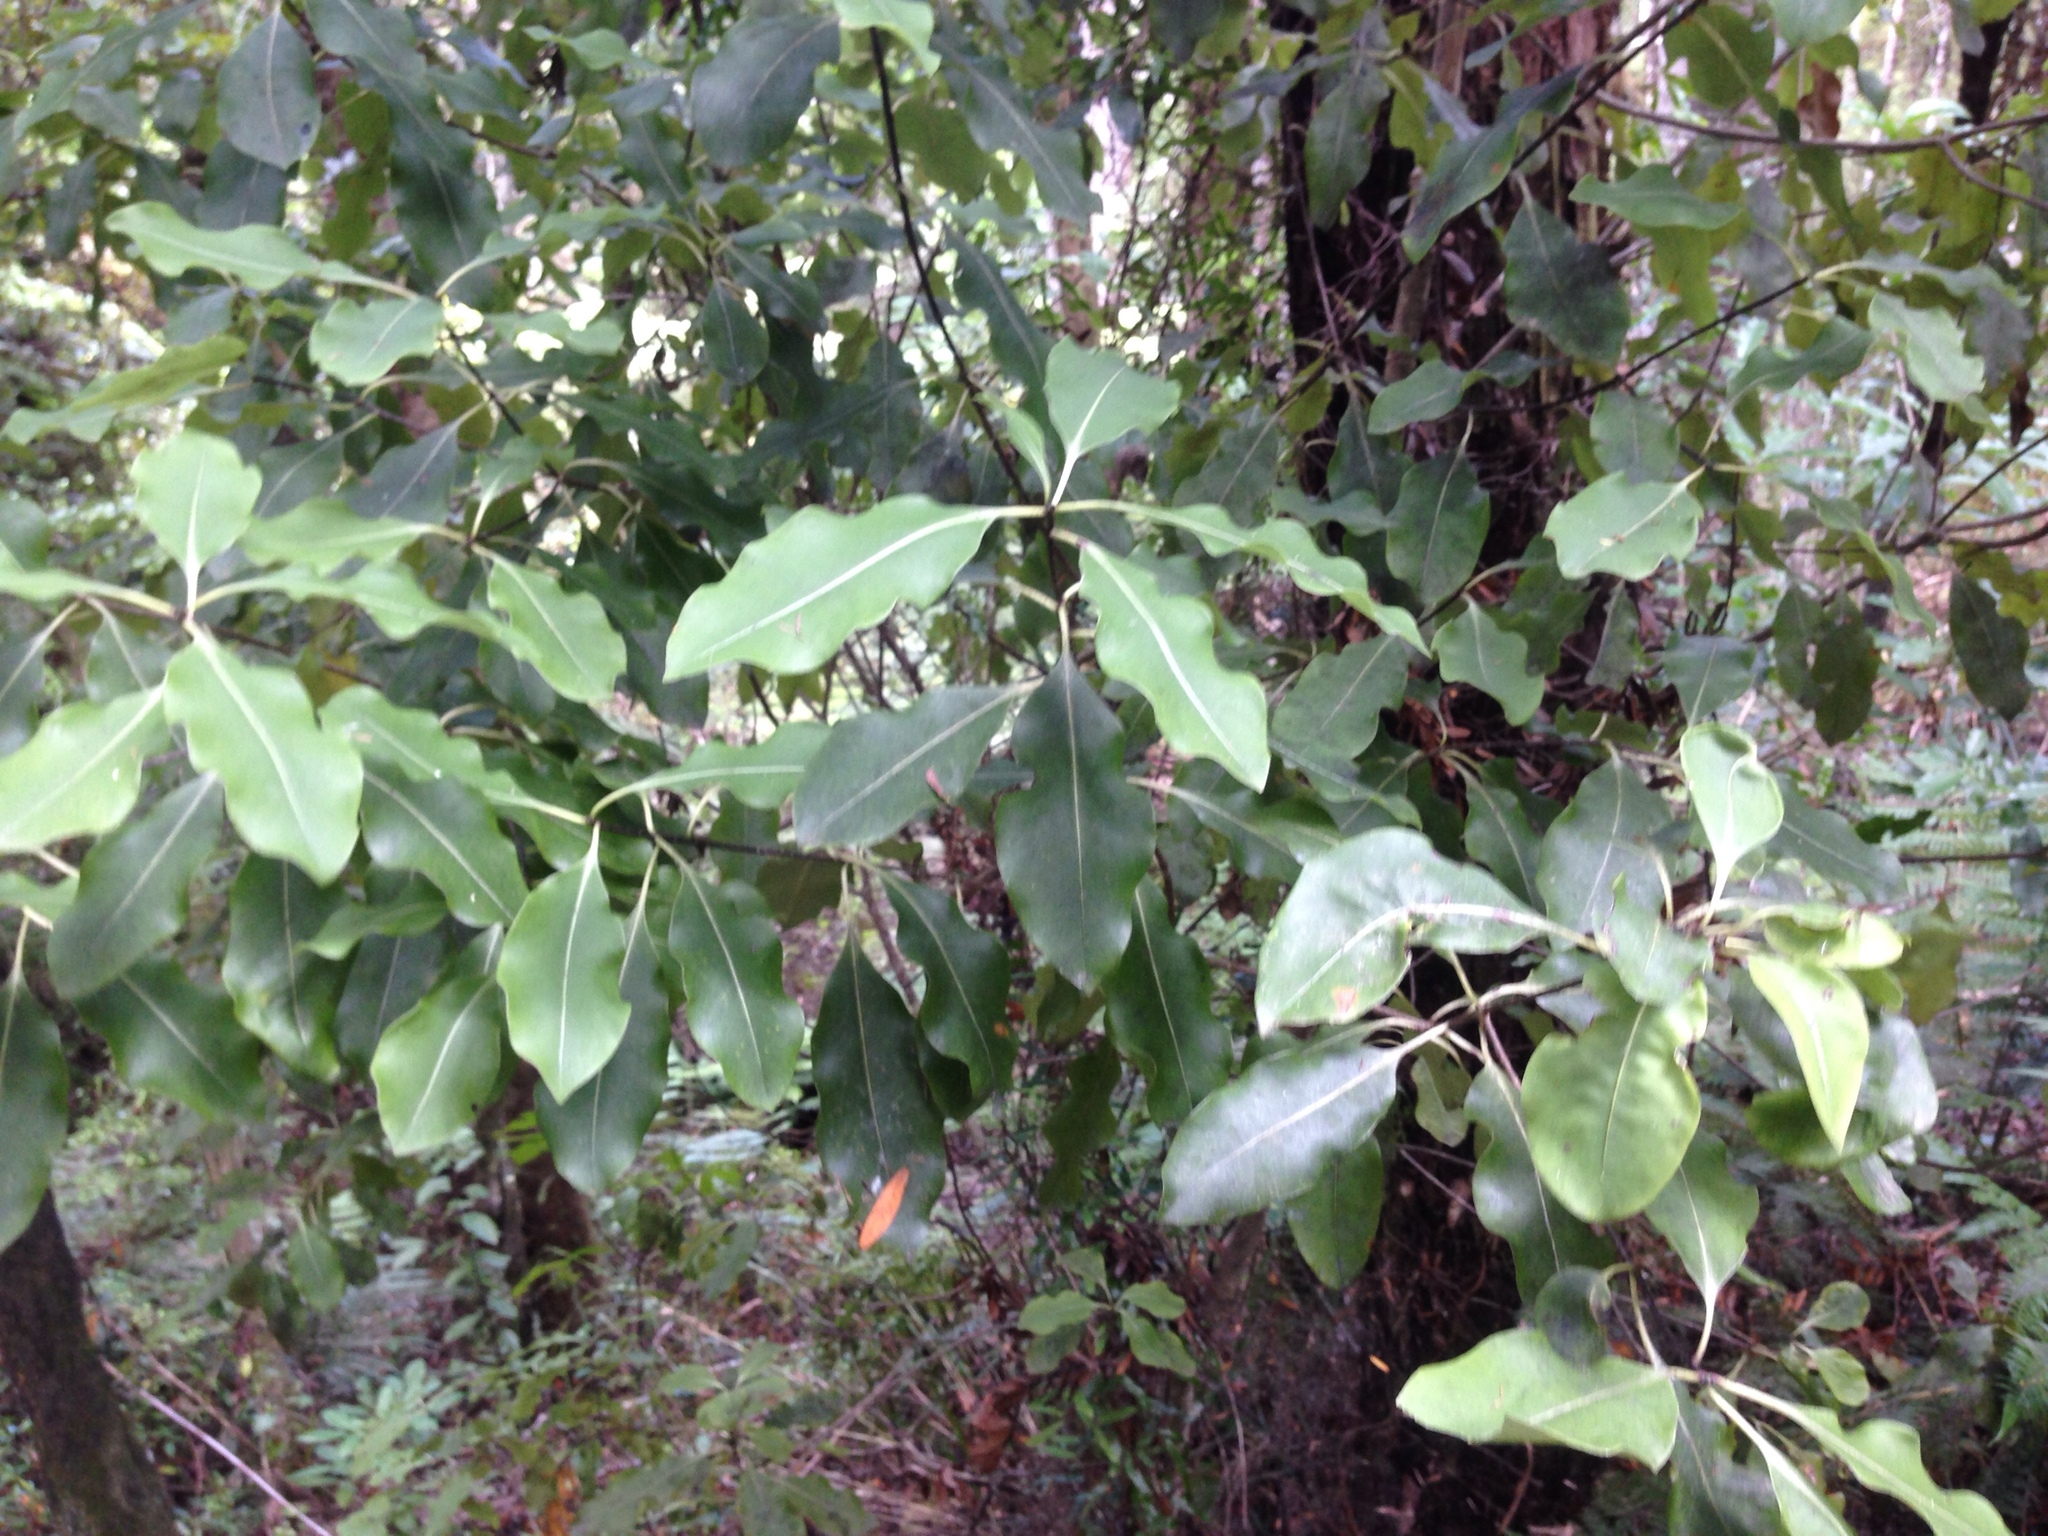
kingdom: Plantae
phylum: Tracheophyta
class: Magnoliopsida
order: Apiales
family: Pittosporaceae
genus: Pittosporum
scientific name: Pittosporum eugenioides
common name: Lemonwood
